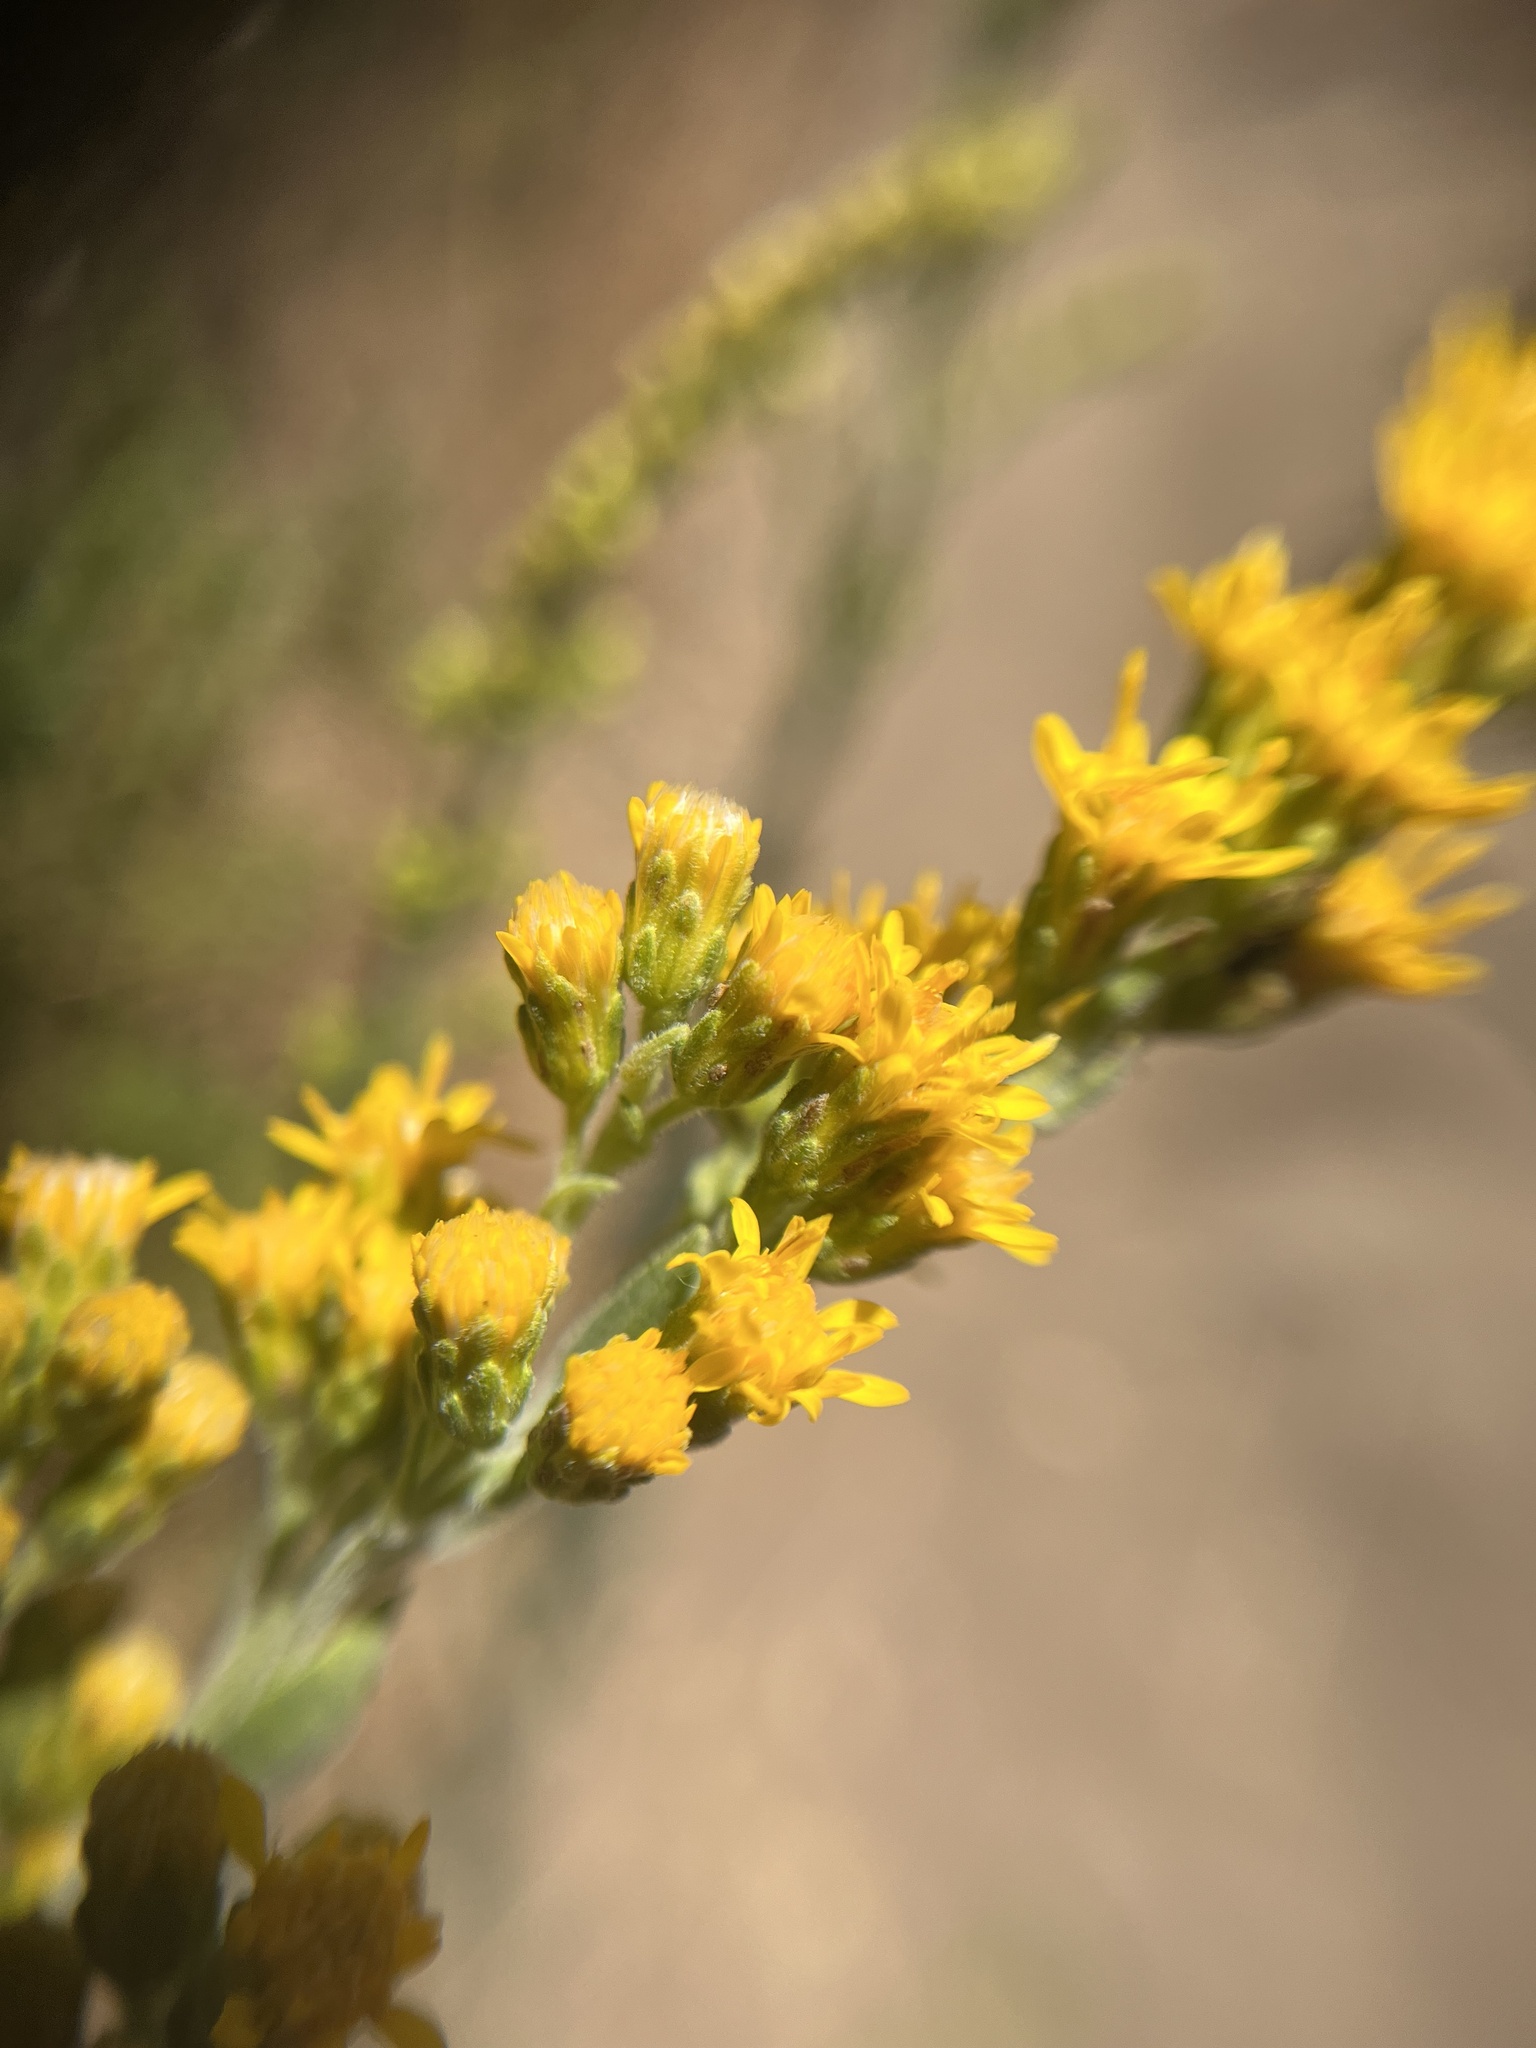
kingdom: Plantae
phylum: Tracheophyta
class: Magnoliopsida
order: Asterales
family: Asteraceae
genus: Solidago
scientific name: Solidago velutina
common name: Three-nerve goldenrod
